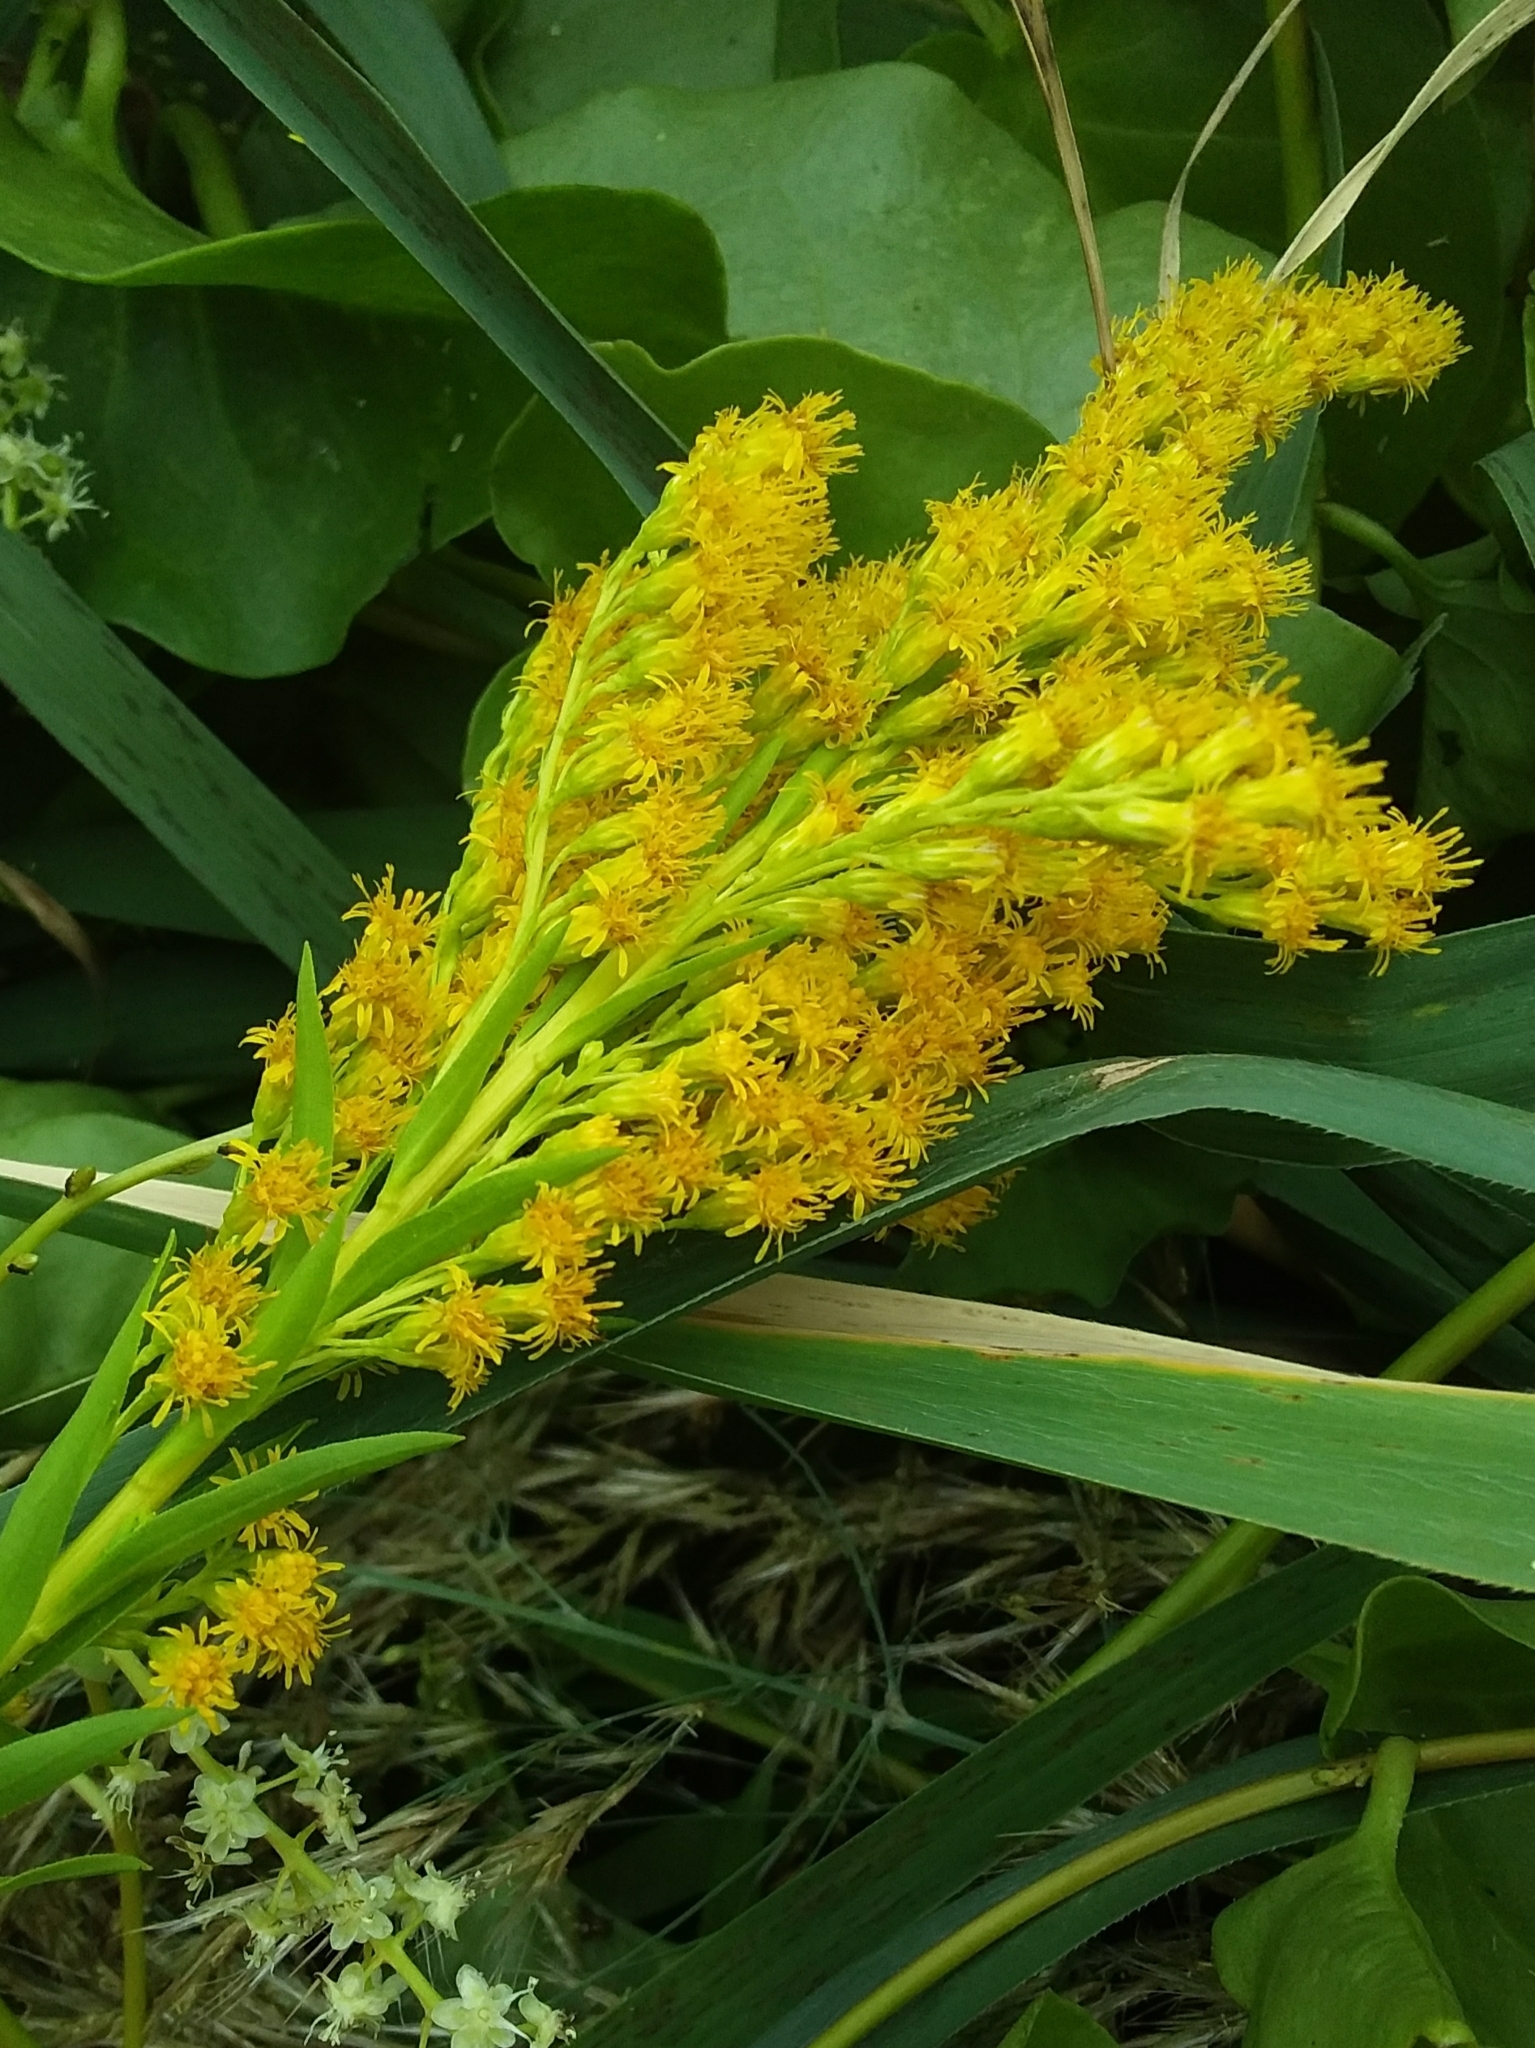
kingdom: Plantae
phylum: Tracheophyta
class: Magnoliopsida
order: Asterales
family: Asteraceae
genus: Solidago
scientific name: Solidago canadensis
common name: Canada goldenrod
